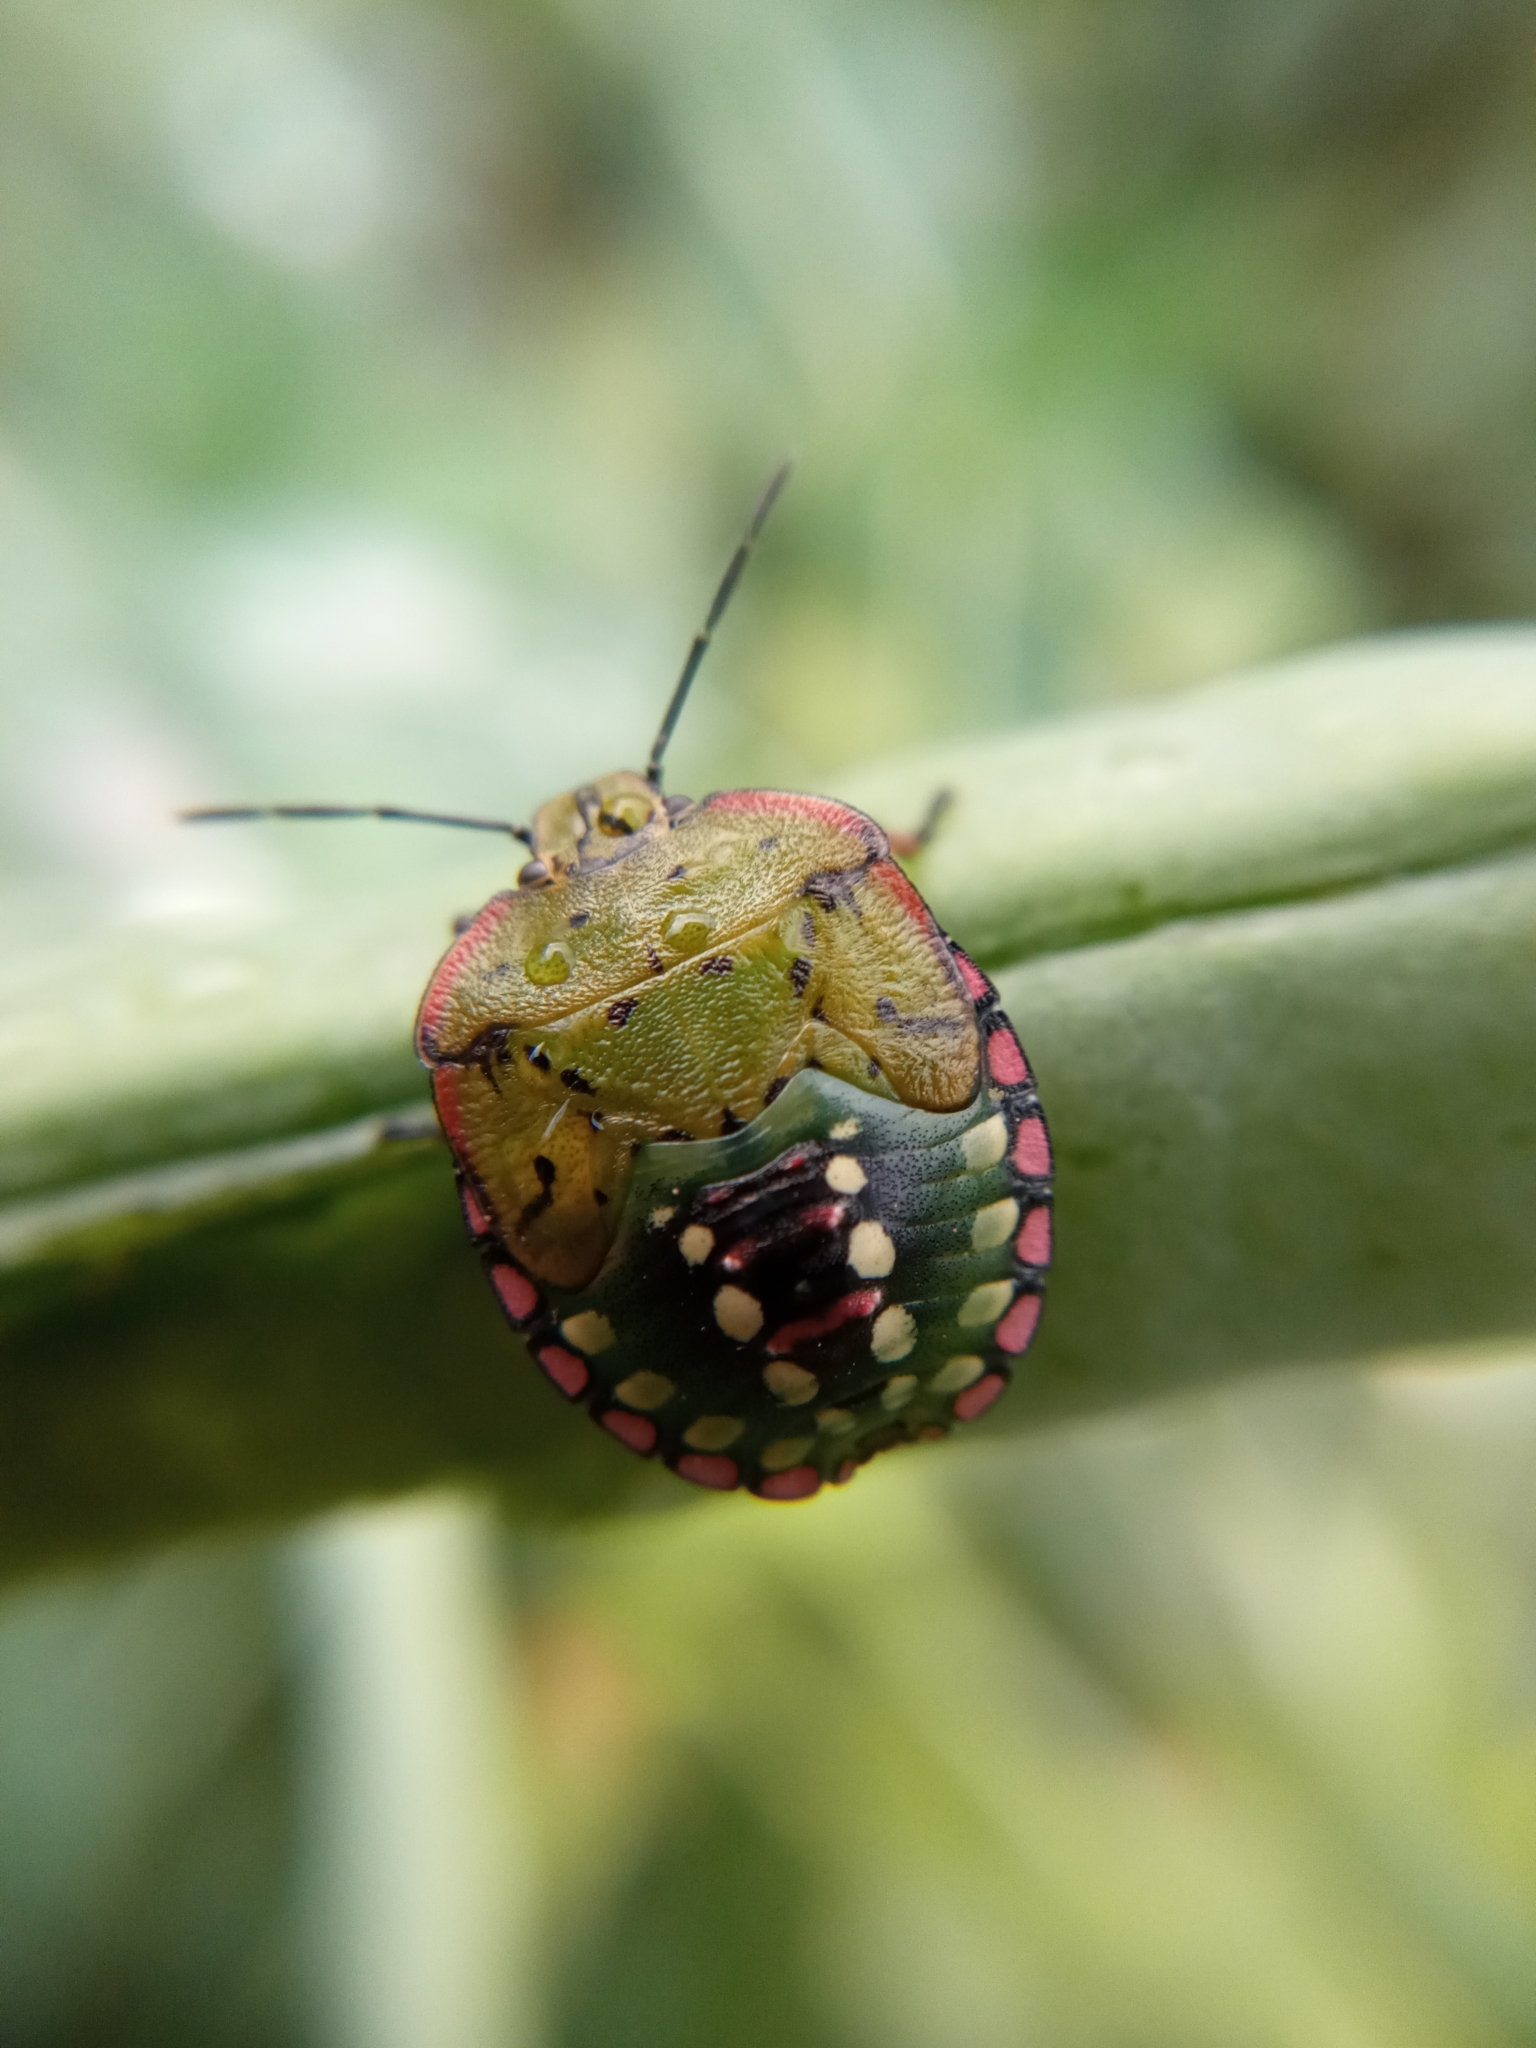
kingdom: Animalia
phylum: Arthropoda
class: Insecta
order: Hemiptera
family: Pentatomidae
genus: Nezara
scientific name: Nezara viridula
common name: Southern green stink bug
